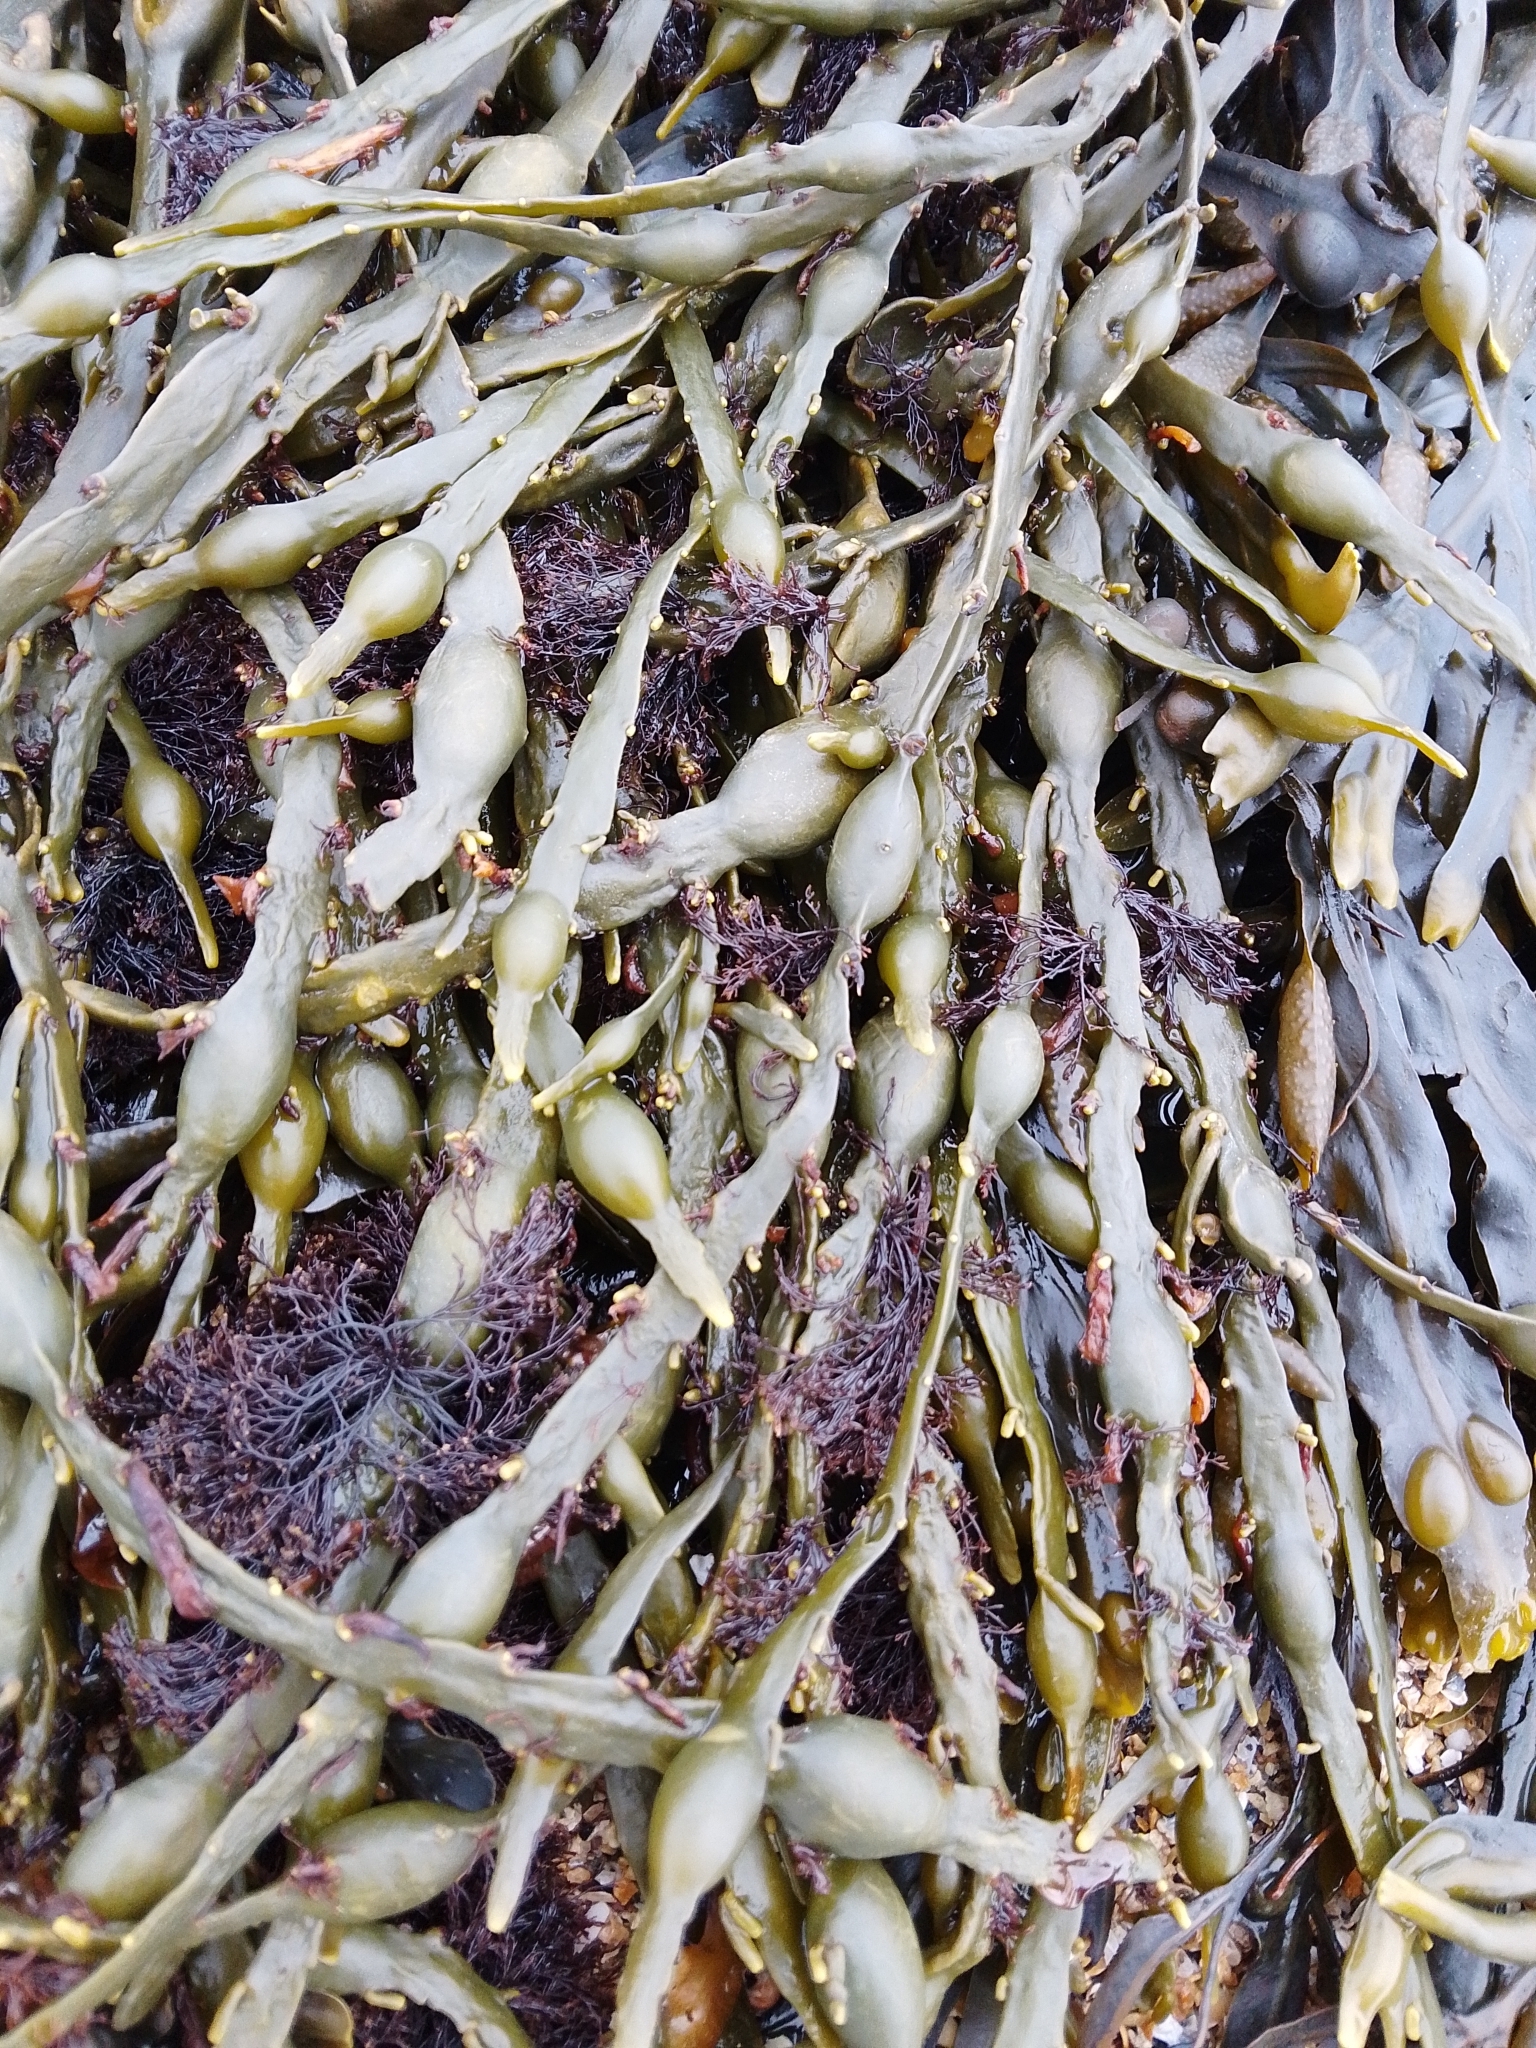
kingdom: Chromista
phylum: Ochrophyta
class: Phaeophyceae
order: Fucales
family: Fucaceae
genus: Ascophyllum
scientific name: Ascophyllum nodosum
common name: Knotted wrack
